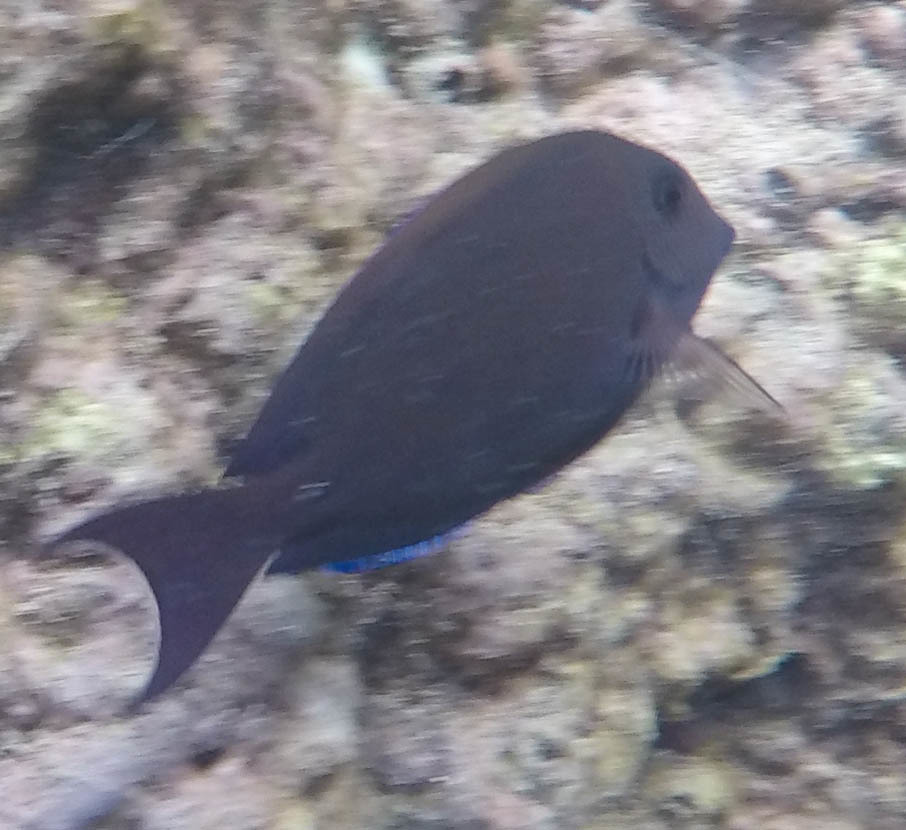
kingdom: Animalia
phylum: Chordata
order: Perciformes
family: Acanthuridae
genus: Acanthurus
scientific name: Acanthurus nigrofuscus
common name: Blackspot surgeonfish
